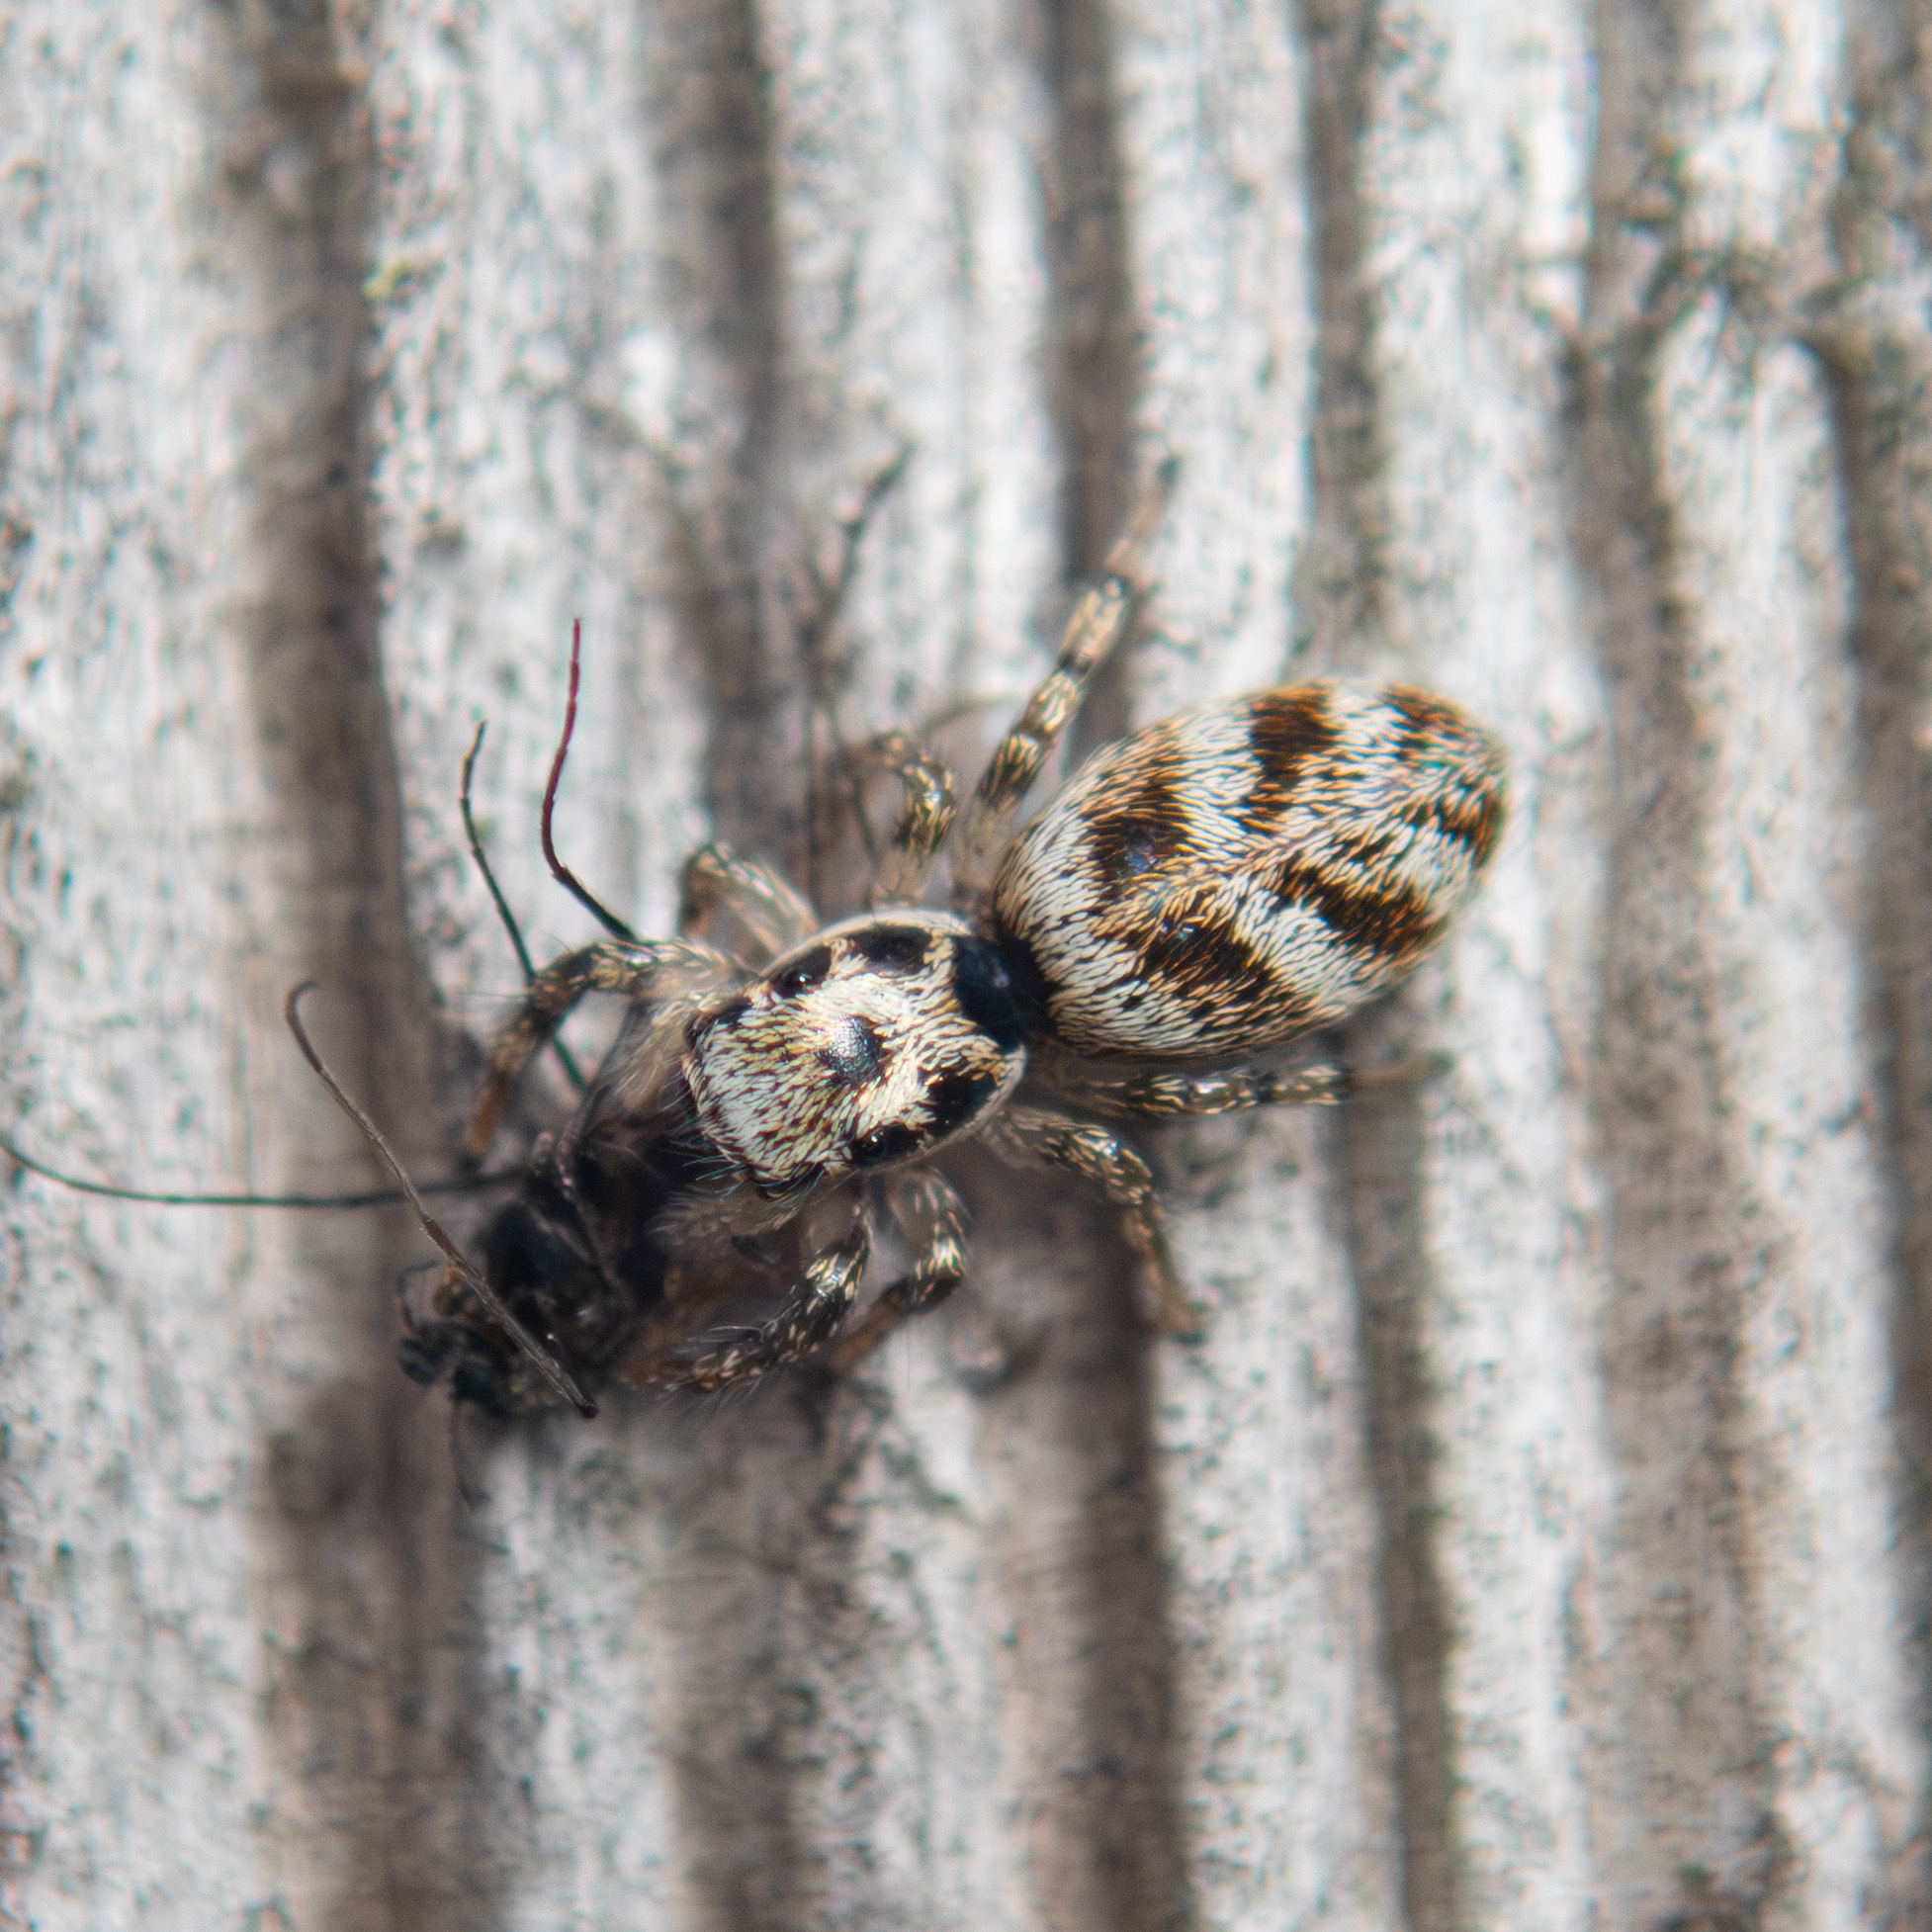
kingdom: Animalia
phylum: Arthropoda
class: Arachnida
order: Araneae
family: Salticidae
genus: Salticus
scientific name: Salticus scenicus
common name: Zebra jumper
